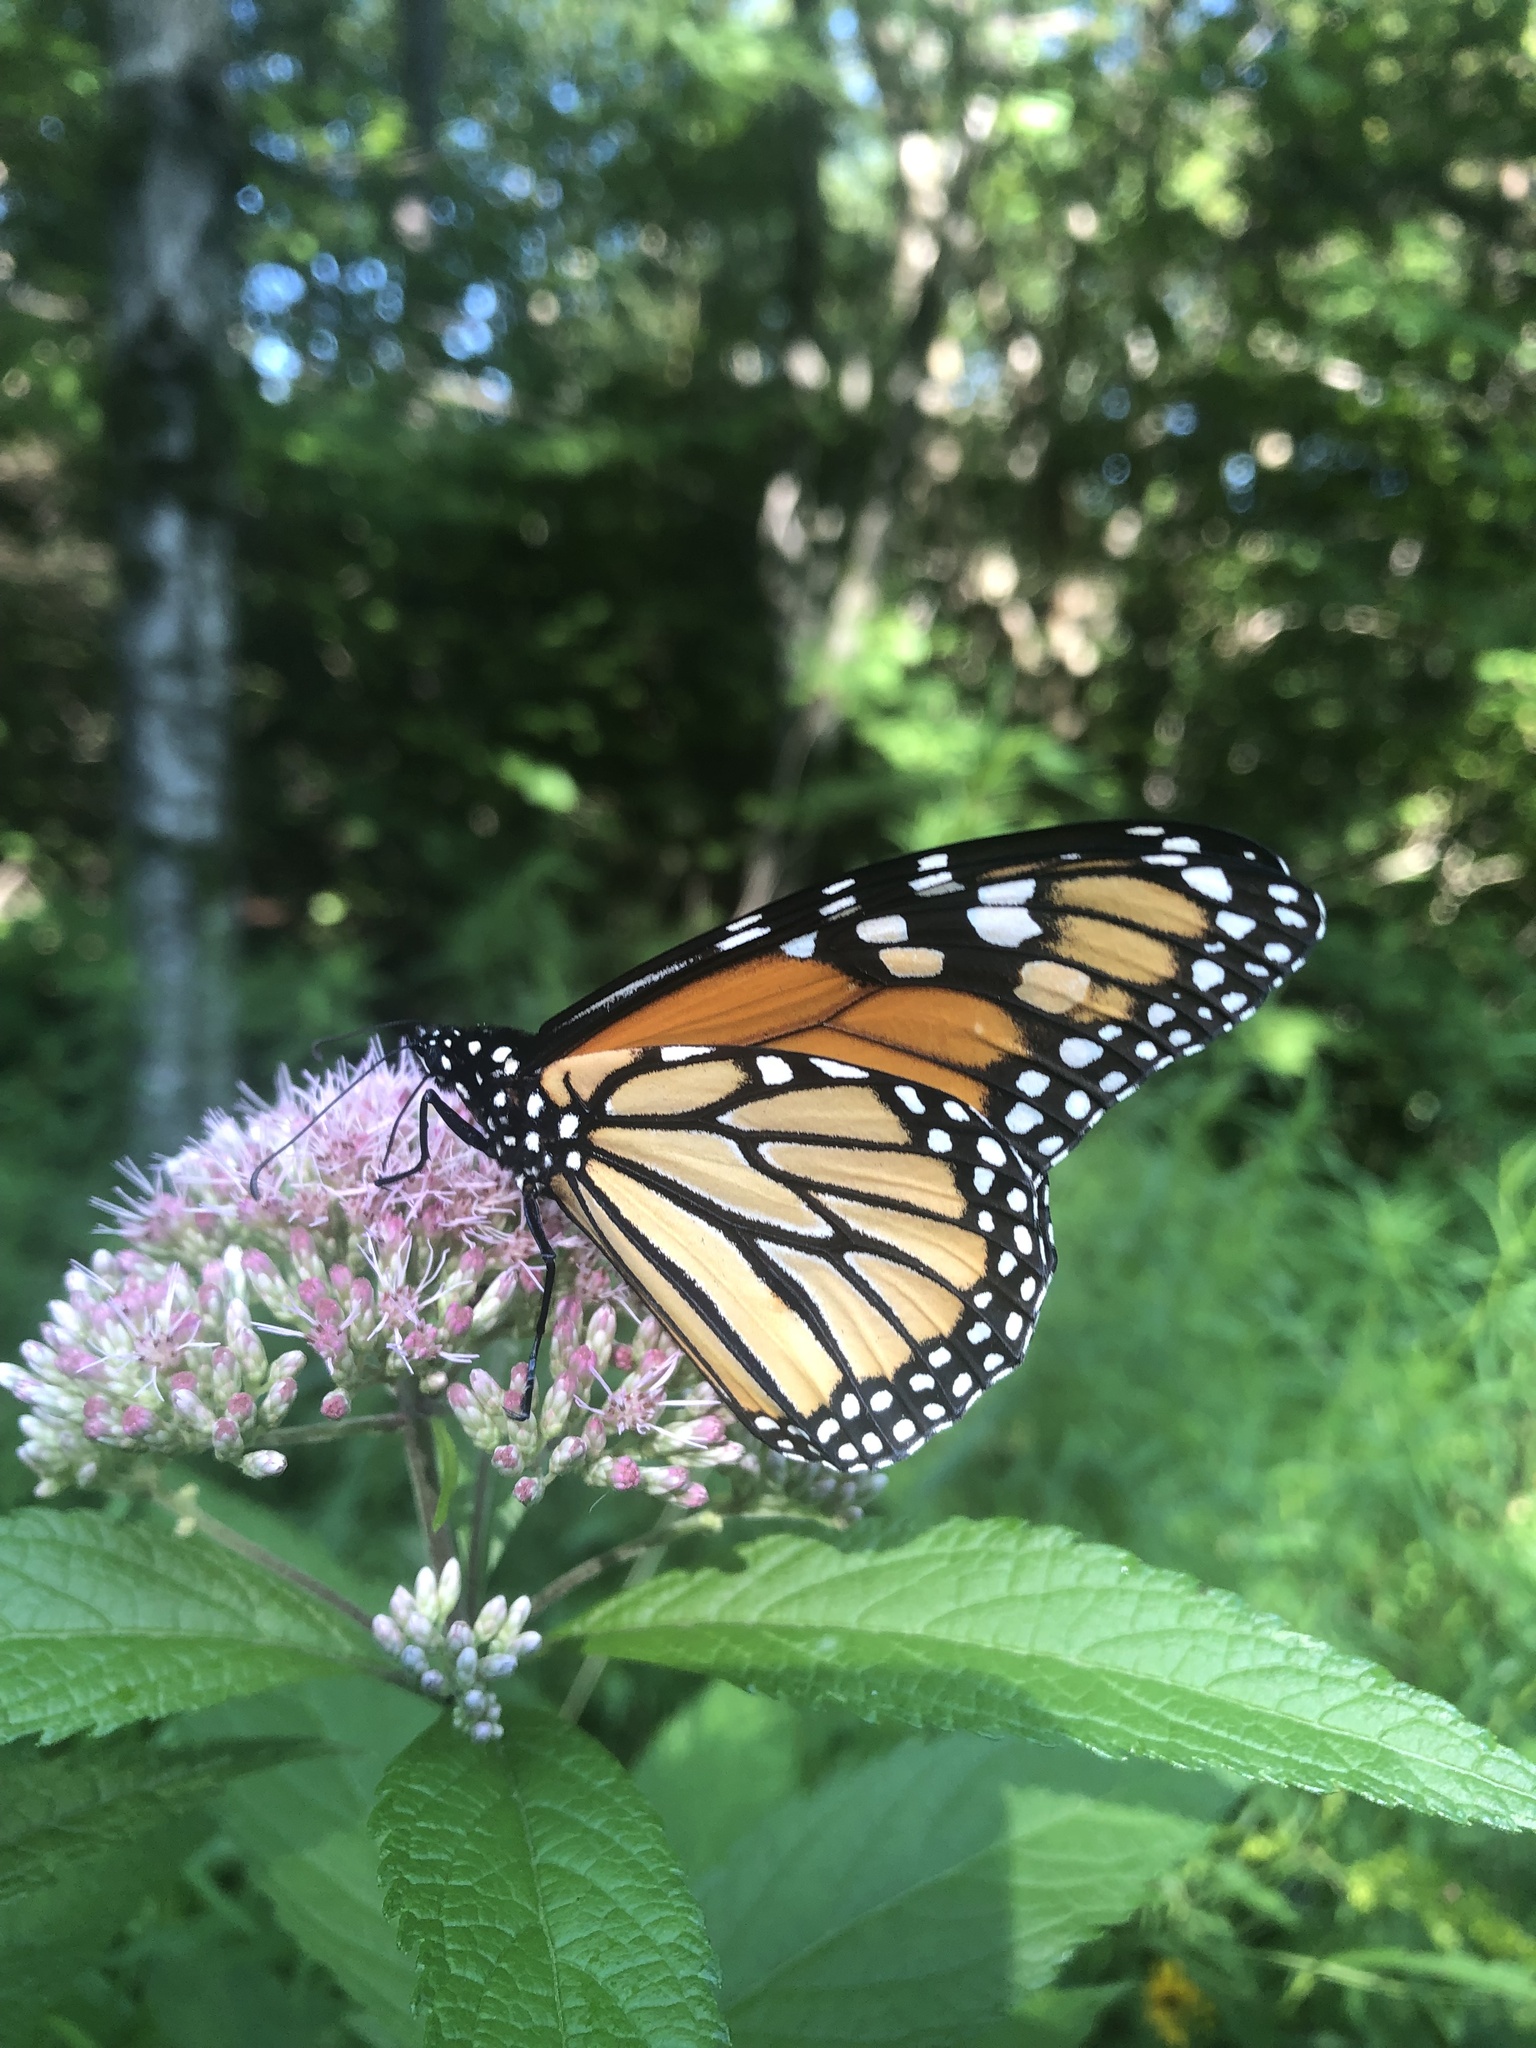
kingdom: Animalia
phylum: Arthropoda
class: Insecta
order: Lepidoptera
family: Nymphalidae
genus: Danaus
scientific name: Danaus plexippus
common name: Monarch
